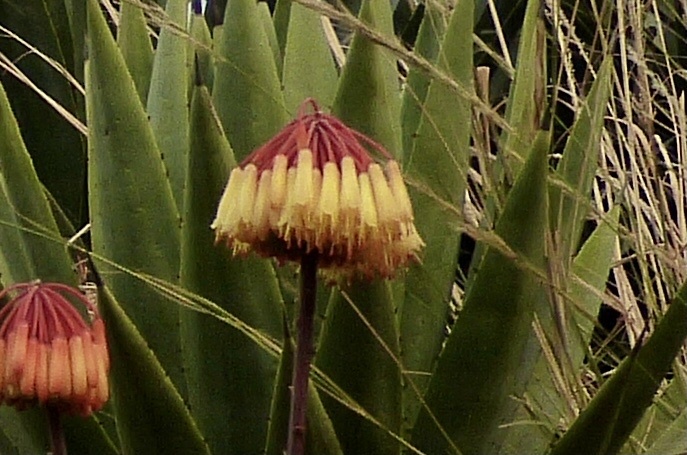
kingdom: Plantae
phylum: Tracheophyta
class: Liliopsida
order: Asparagales
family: Asphodelaceae
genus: Aloe
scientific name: Aloe capitata
